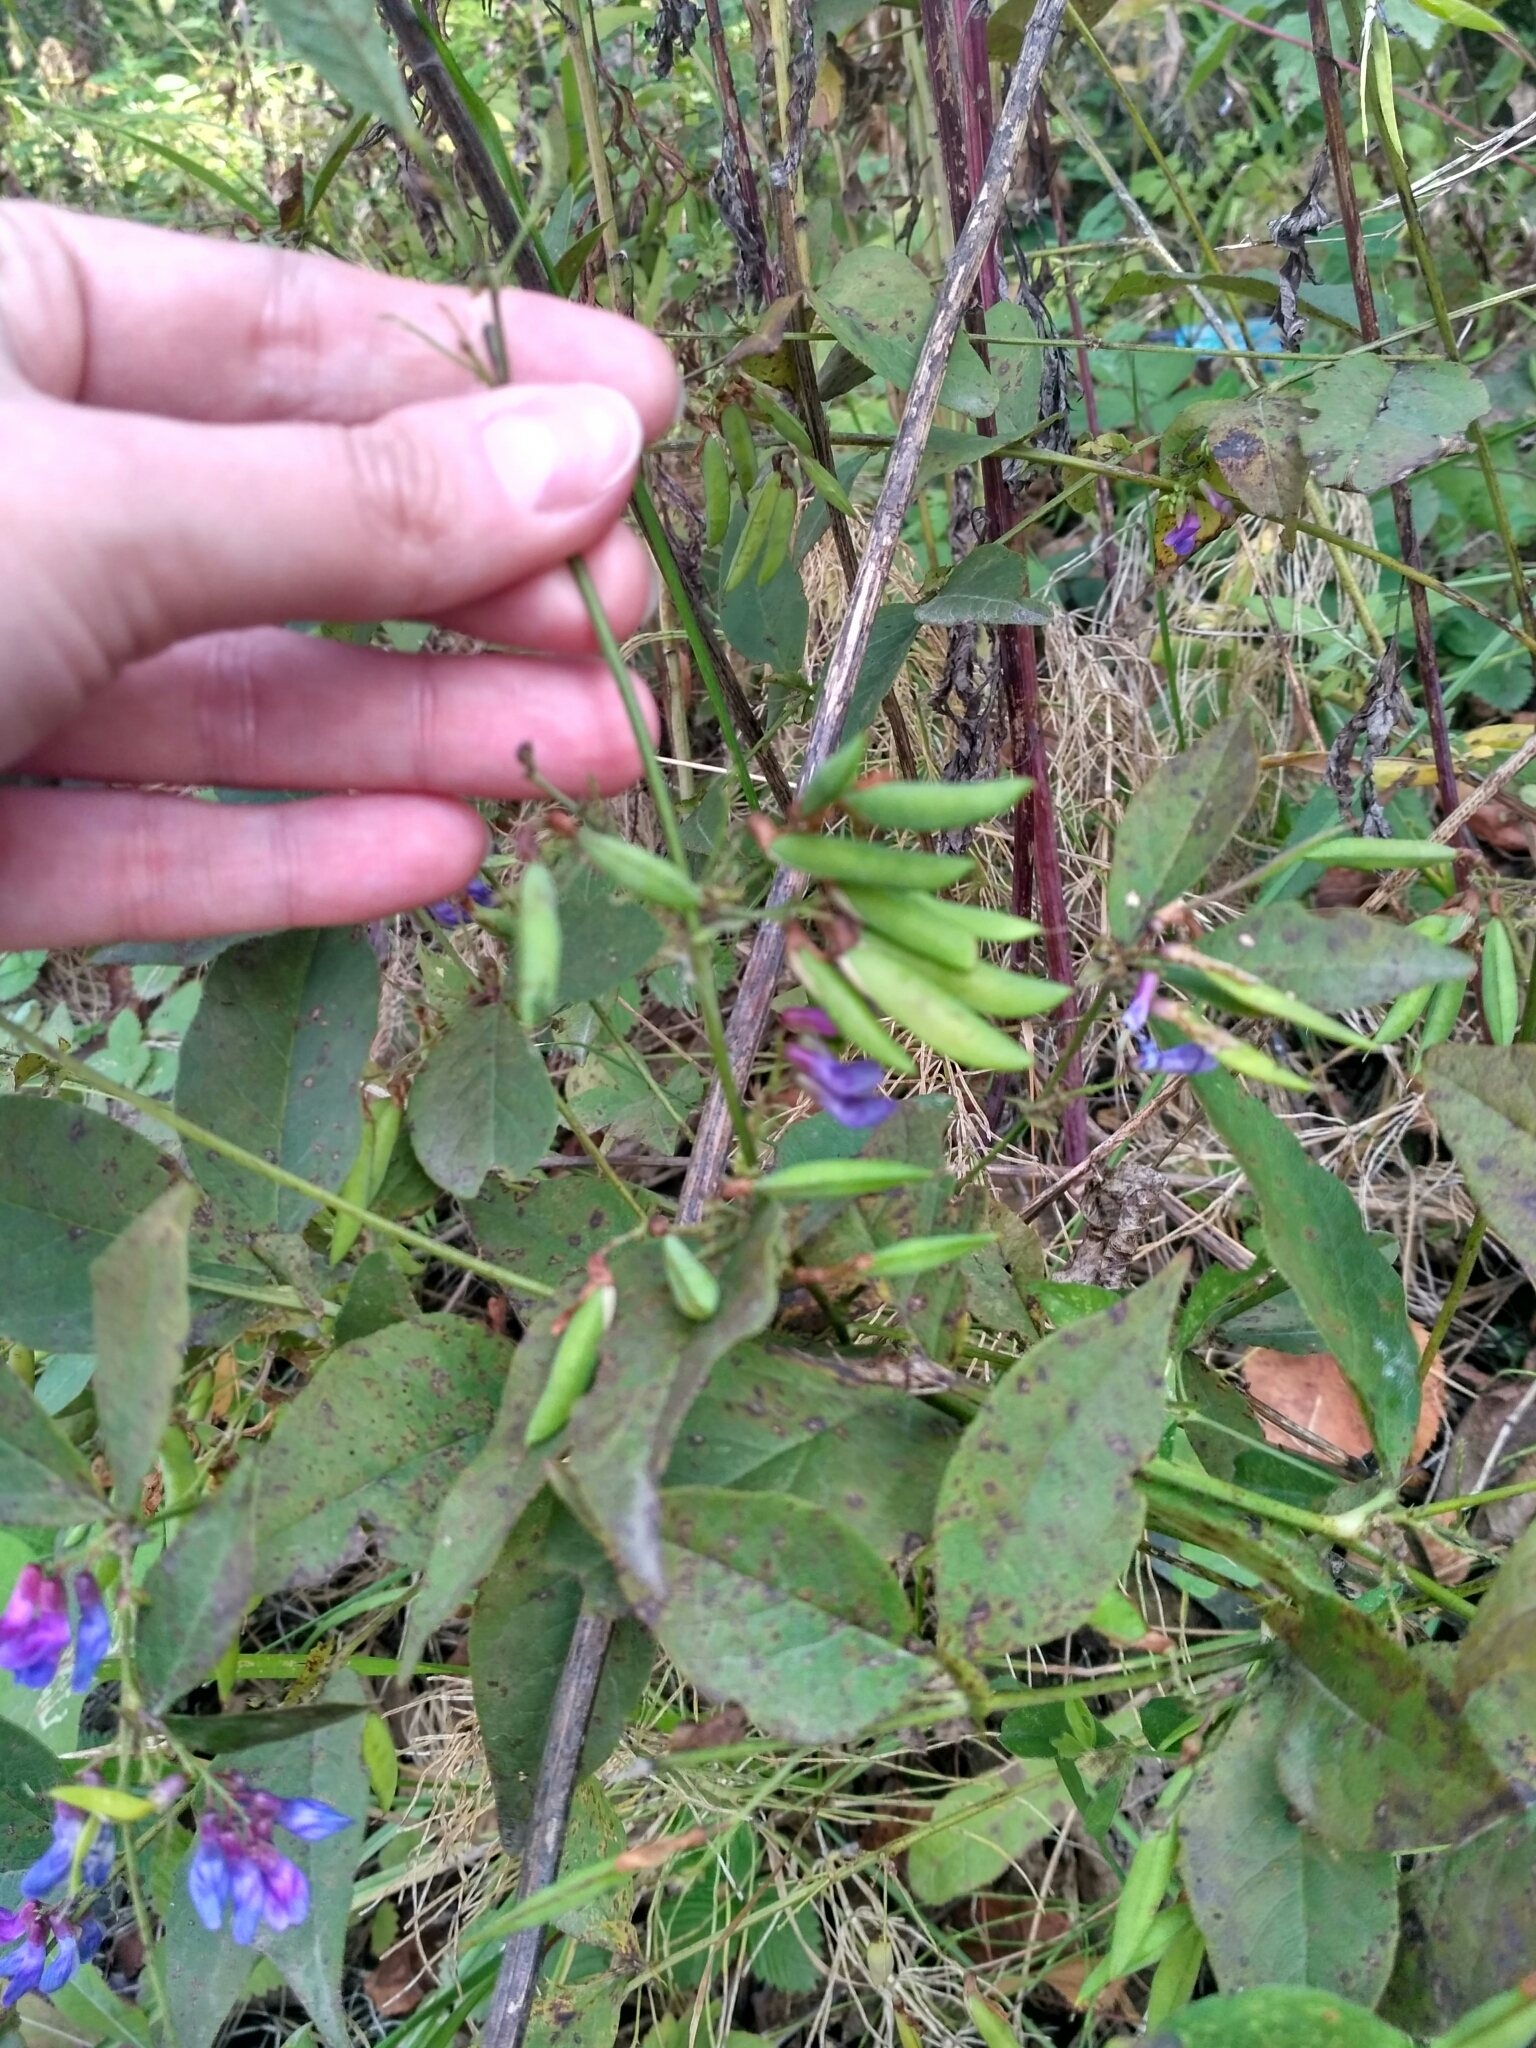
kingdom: Plantae
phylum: Tracheophyta
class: Magnoliopsida
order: Fabales
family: Fabaceae
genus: Vicia
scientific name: Vicia unijuga
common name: Two-leaf vetch
